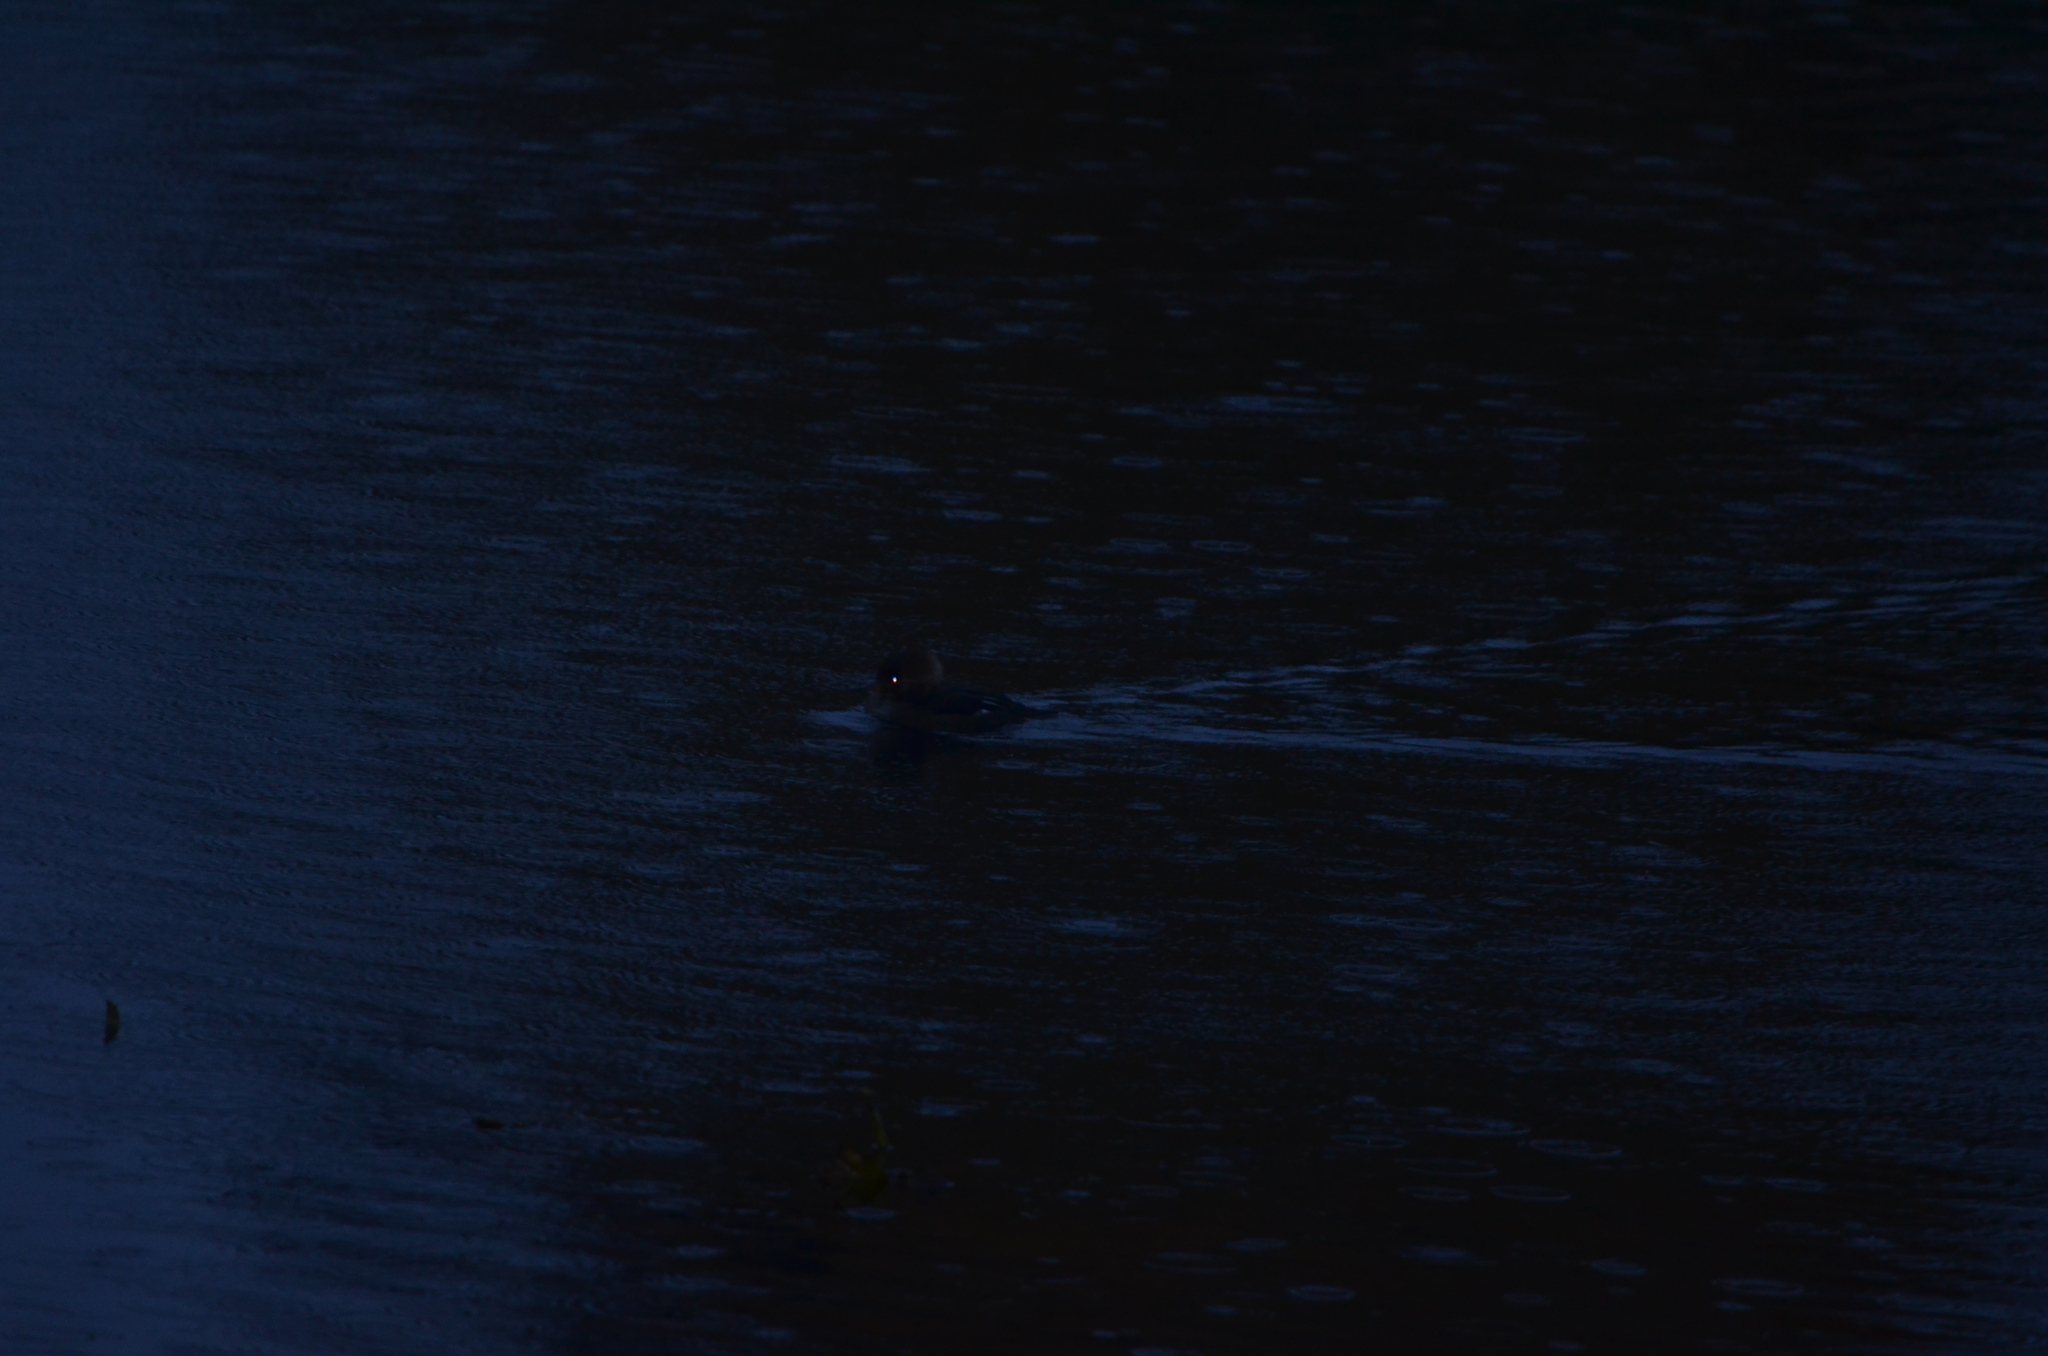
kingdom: Animalia
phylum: Chordata
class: Aves
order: Anseriformes
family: Anatidae
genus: Lophodytes
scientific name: Lophodytes cucullatus
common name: Hooded merganser
